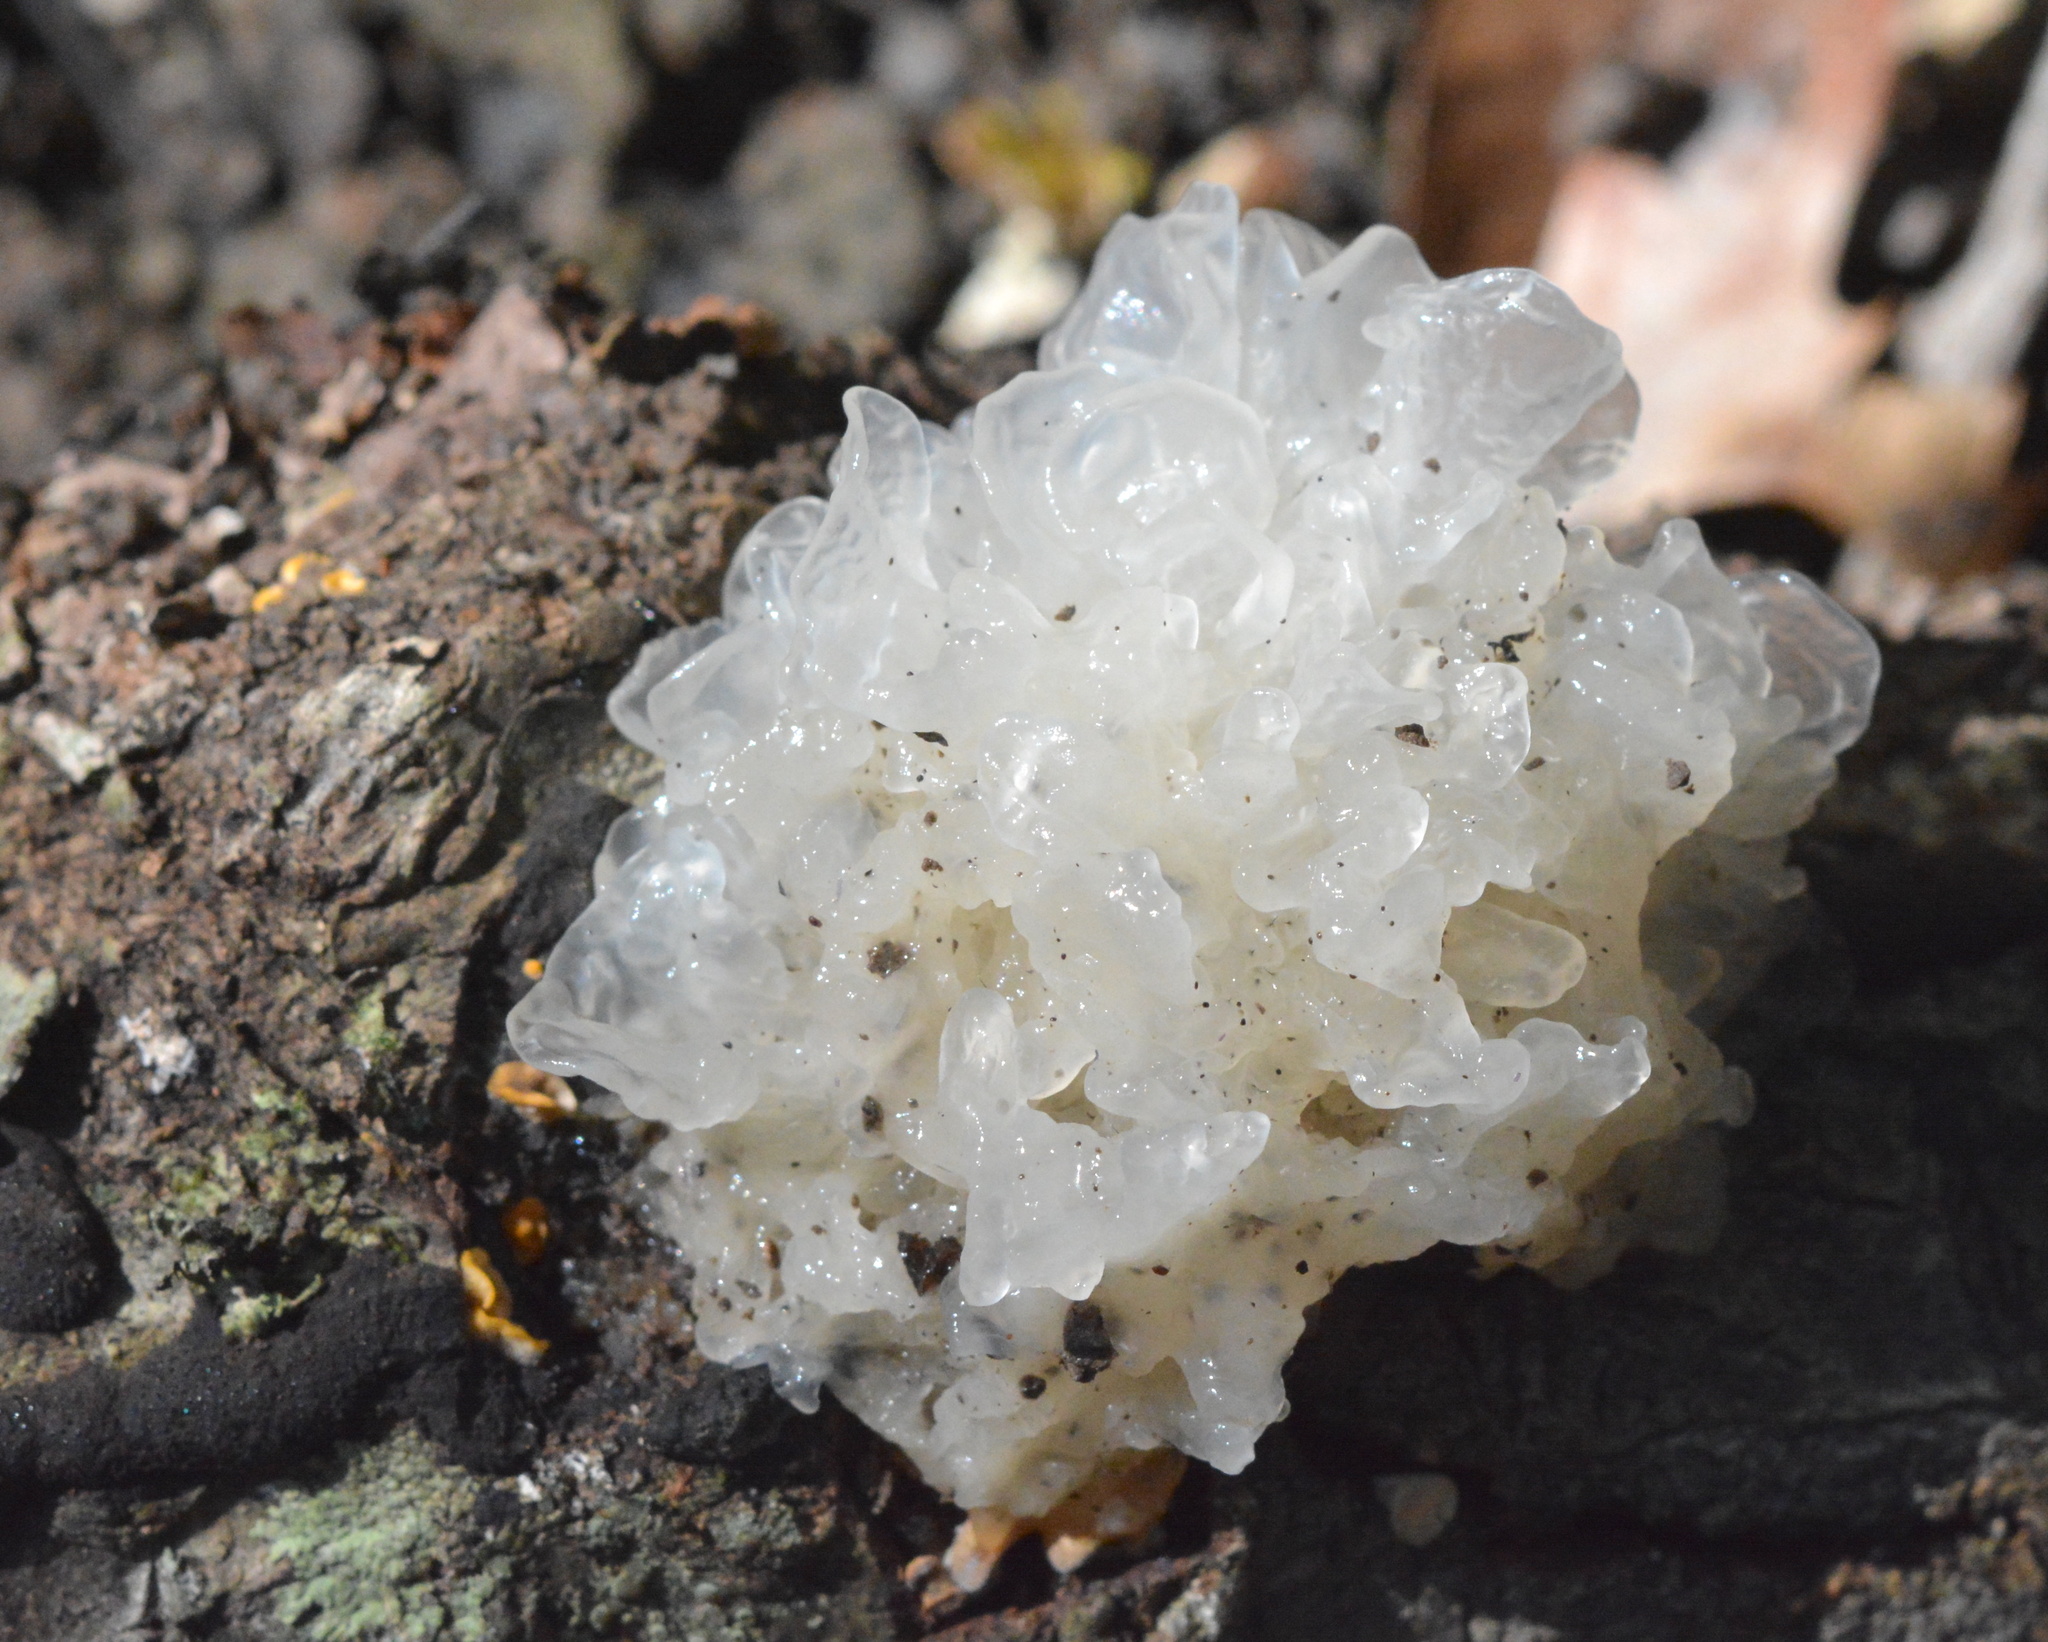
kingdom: Fungi
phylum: Basidiomycota
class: Tremellomycetes
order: Tremellales
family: Tremellaceae
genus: Tremella
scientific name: Tremella fuciformis
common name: Snow fungus
